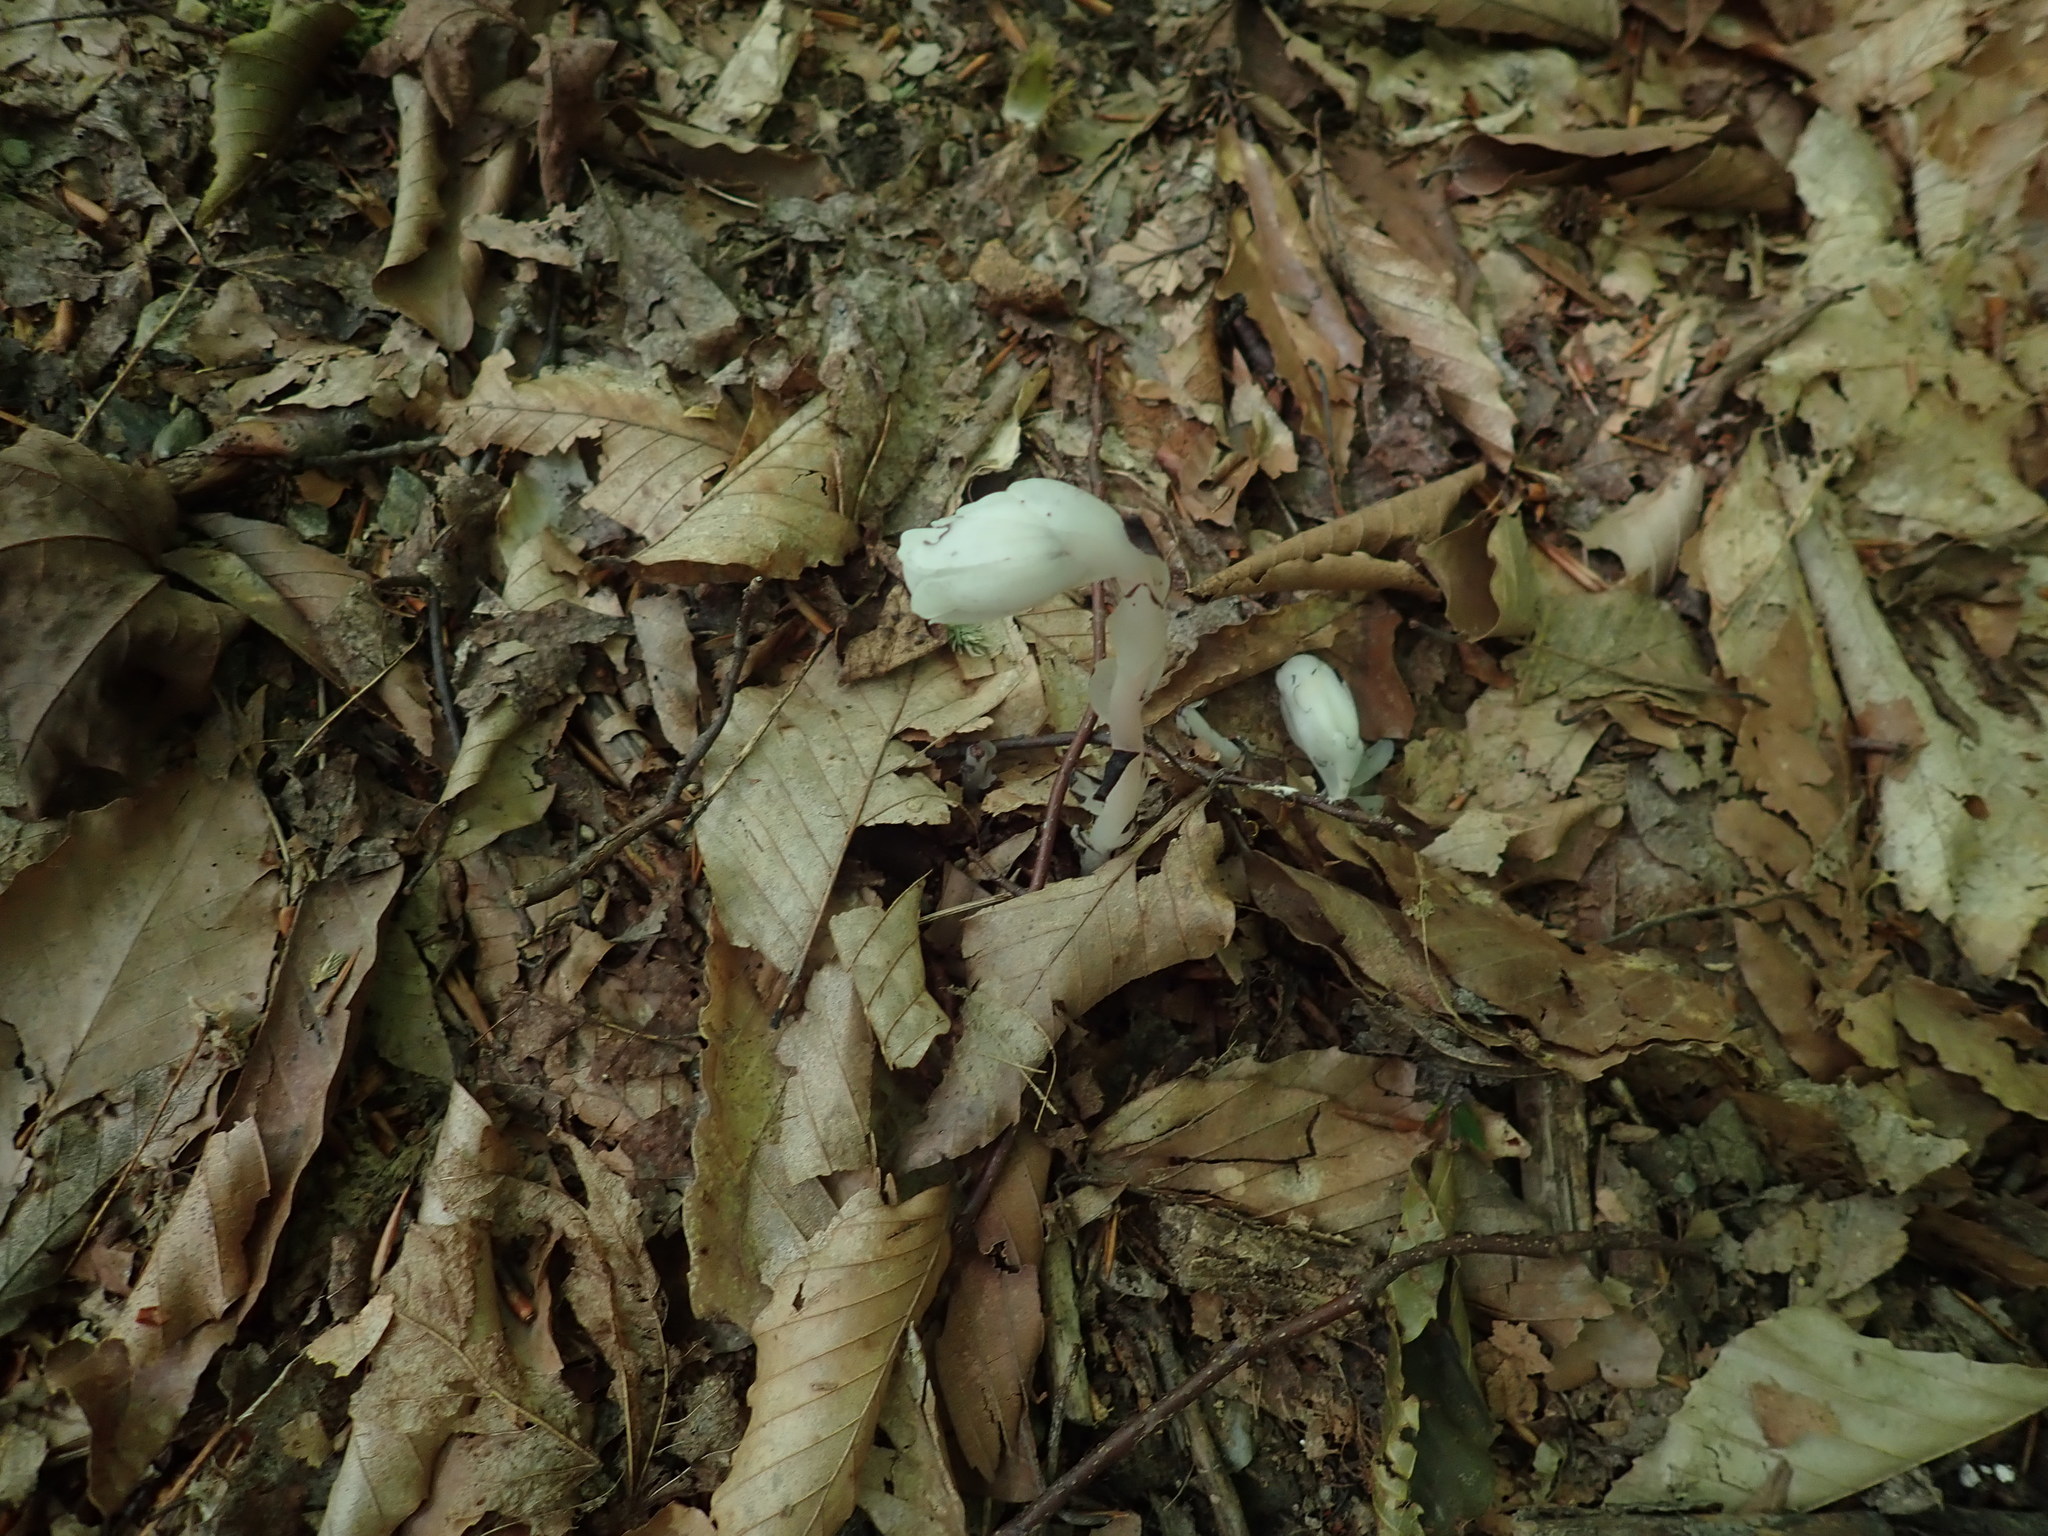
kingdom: Plantae
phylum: Tracheophyta
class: Magnoliopsida
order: Ericales
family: Ericaceae
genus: Monotropa
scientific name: Monotropa uniflora
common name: Convulsion root
